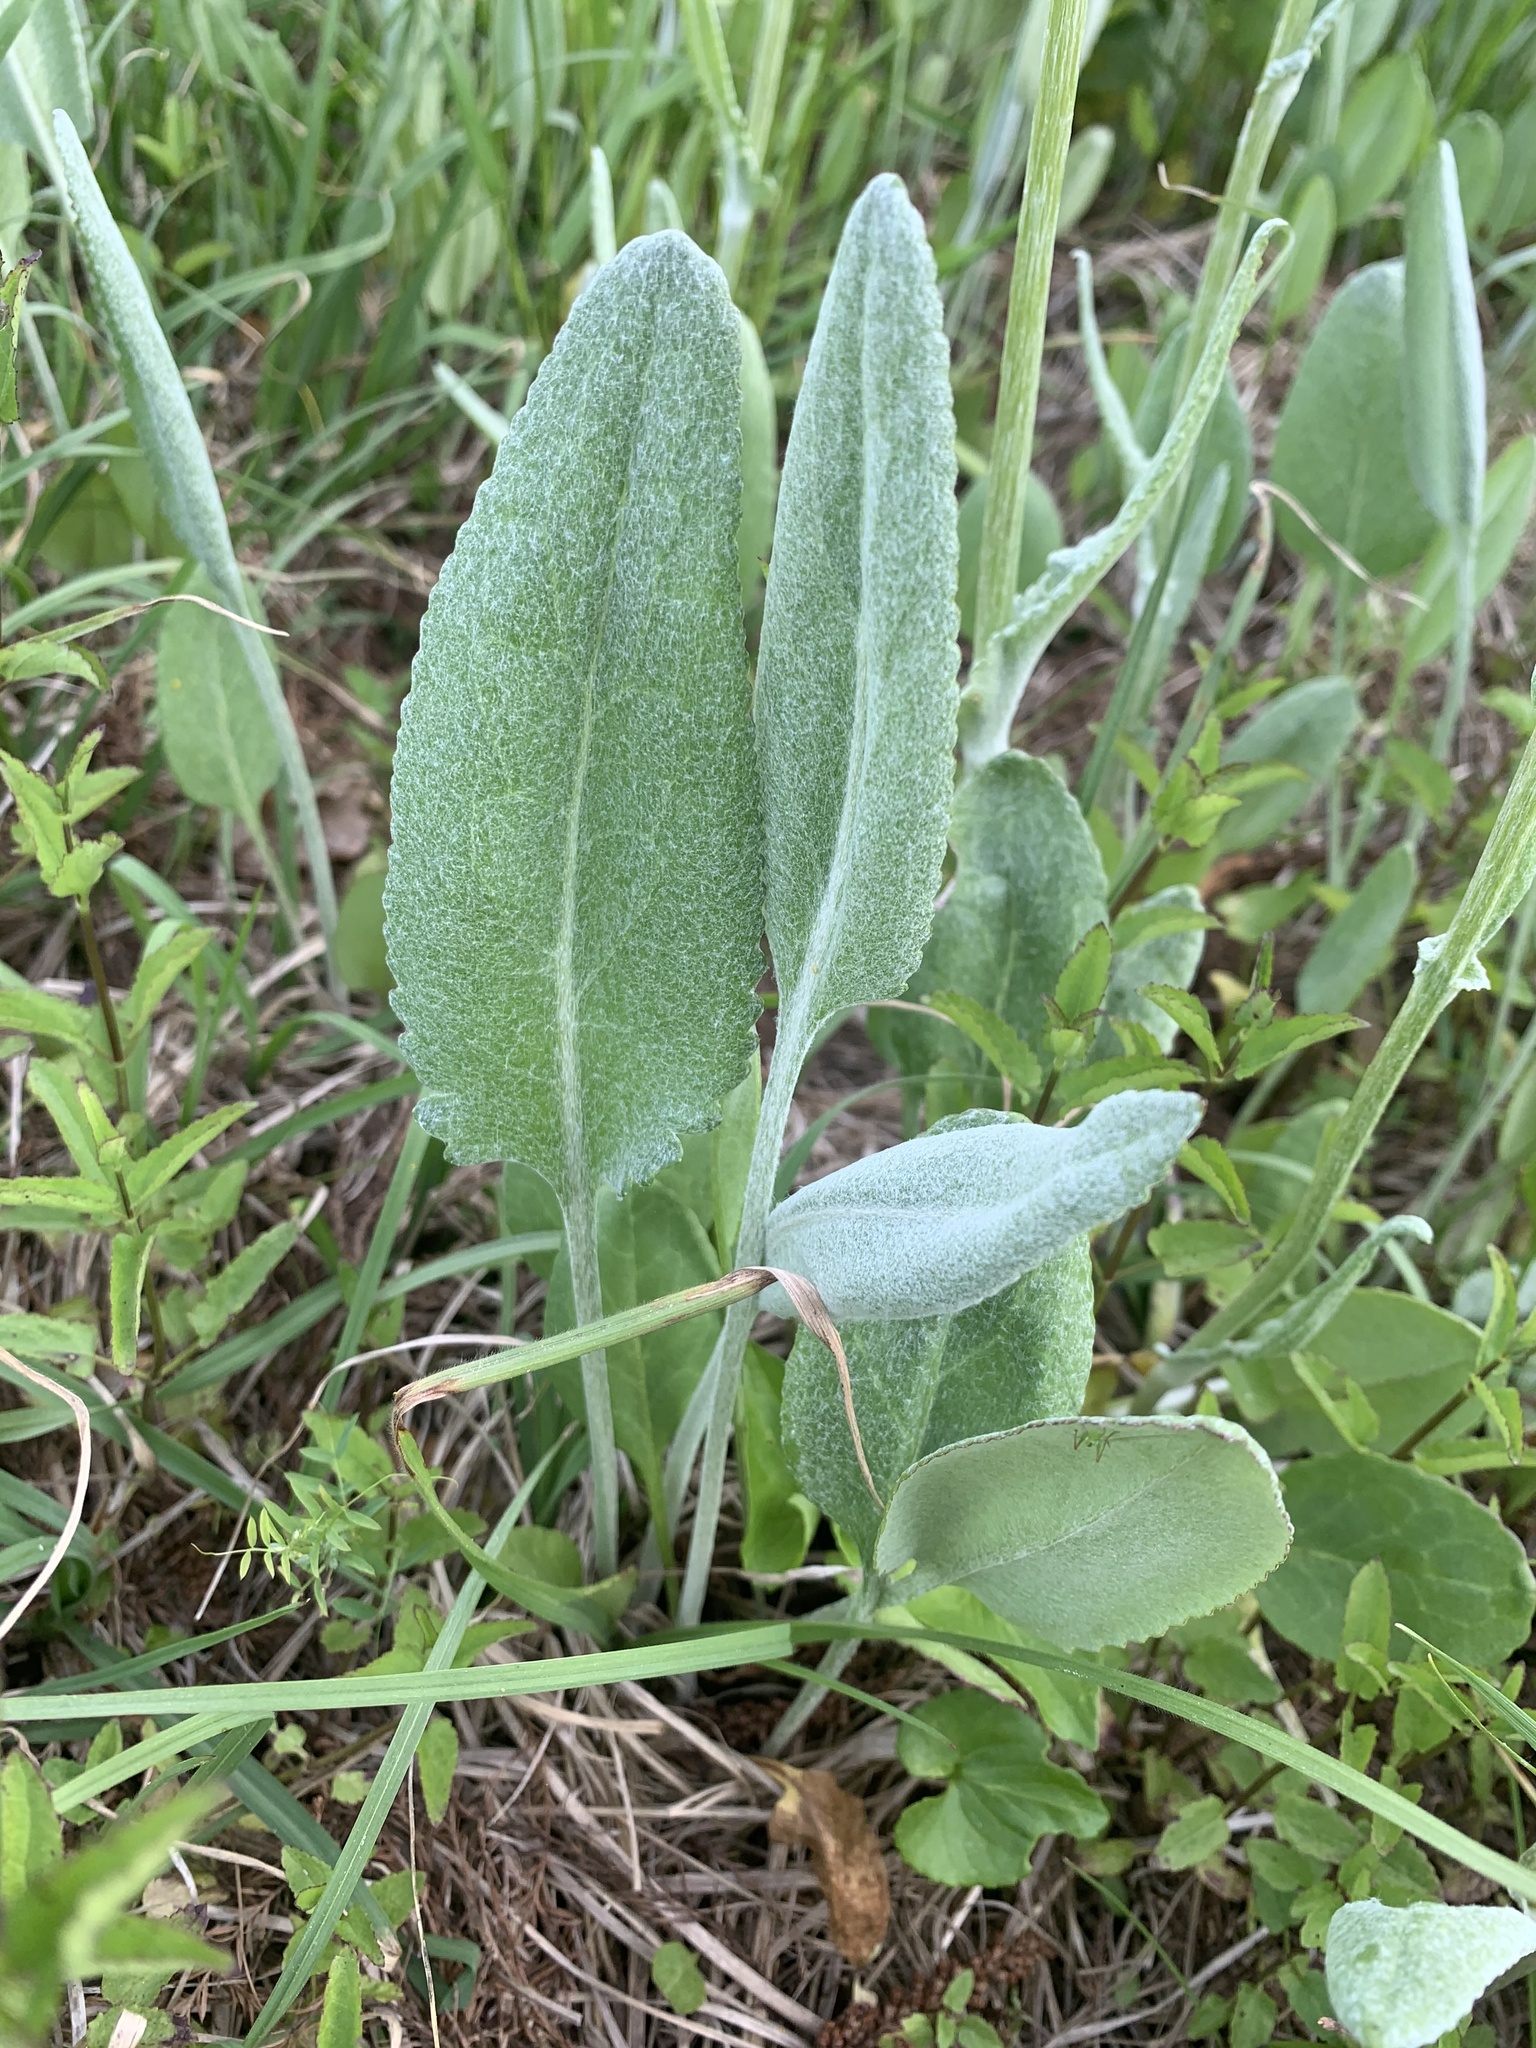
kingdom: Plantae
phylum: Tracheophyta
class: Magnoliopsida
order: Asterales
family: Asteraceae
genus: Packera
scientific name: Packera dubia
